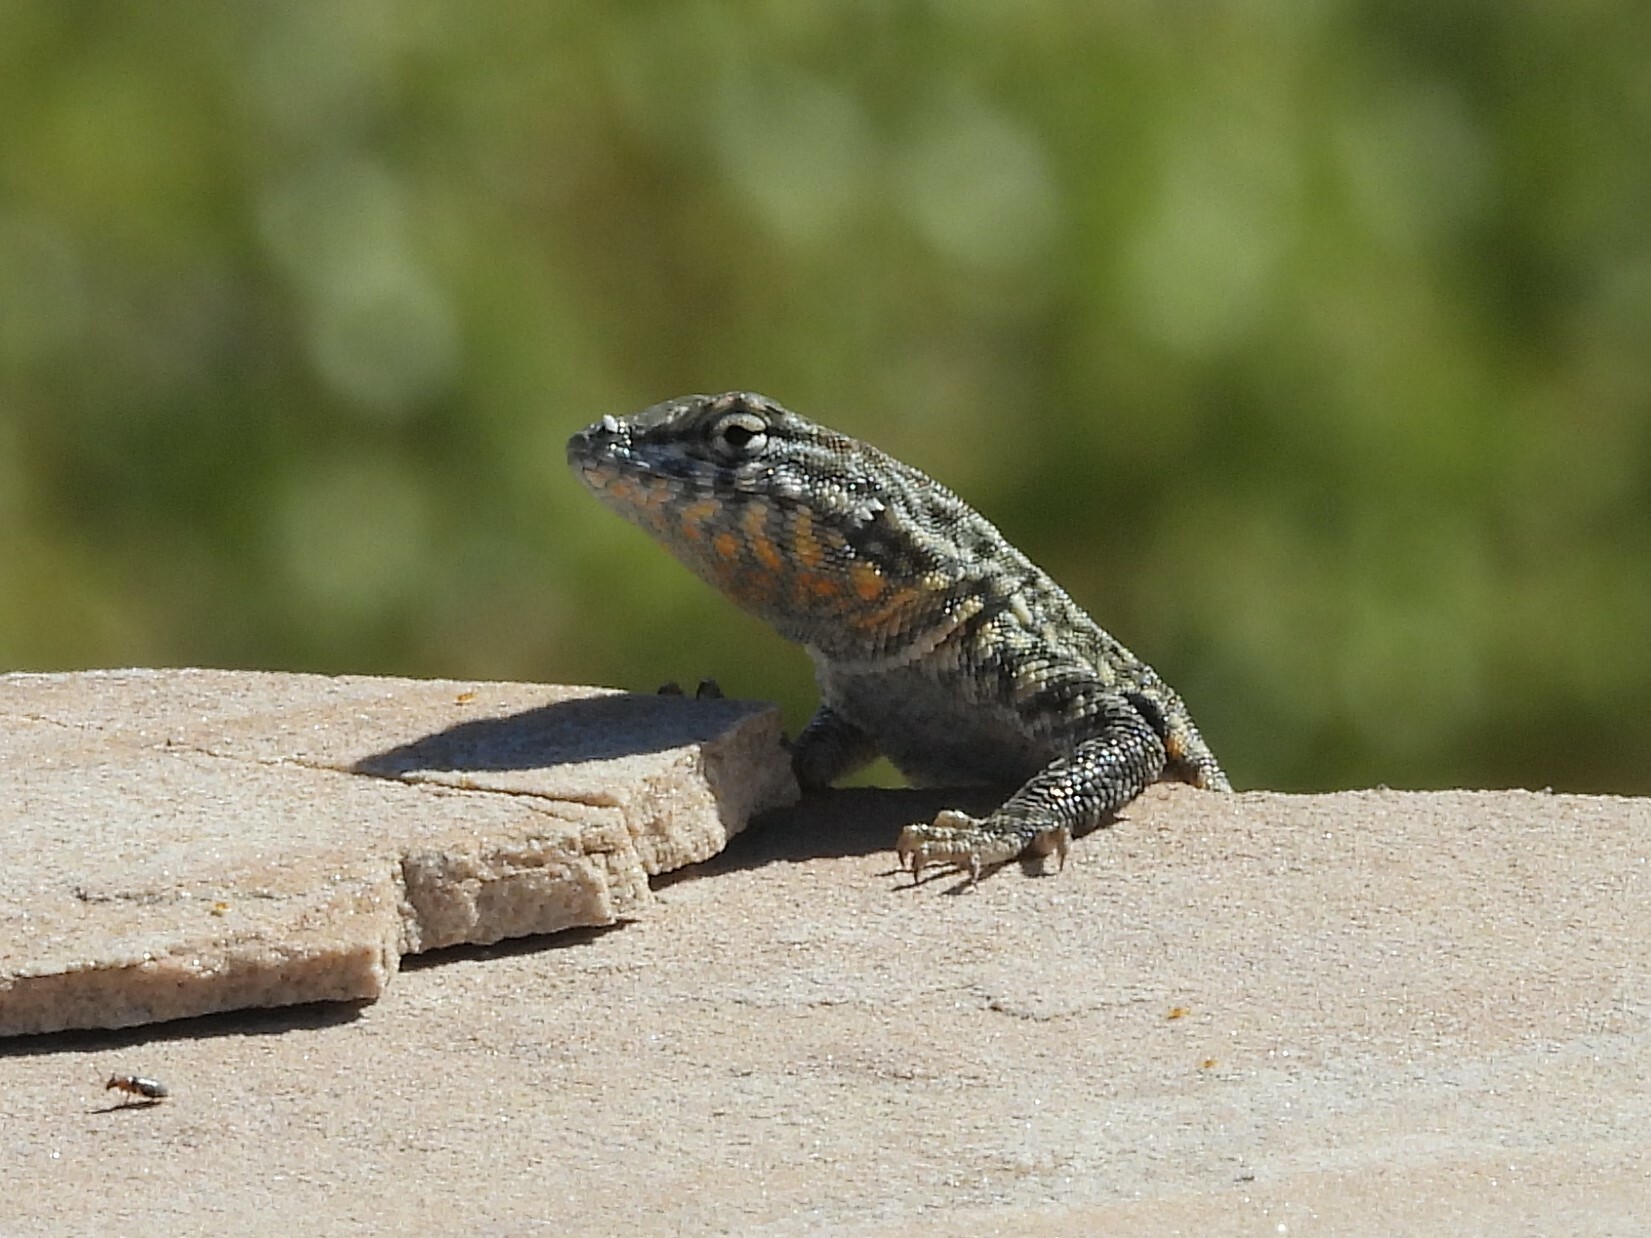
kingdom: Animalia
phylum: Chordata
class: Squamata
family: Phrynosomatidae
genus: Uta
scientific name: Uta stansburiana
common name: Side-blotched lizard
